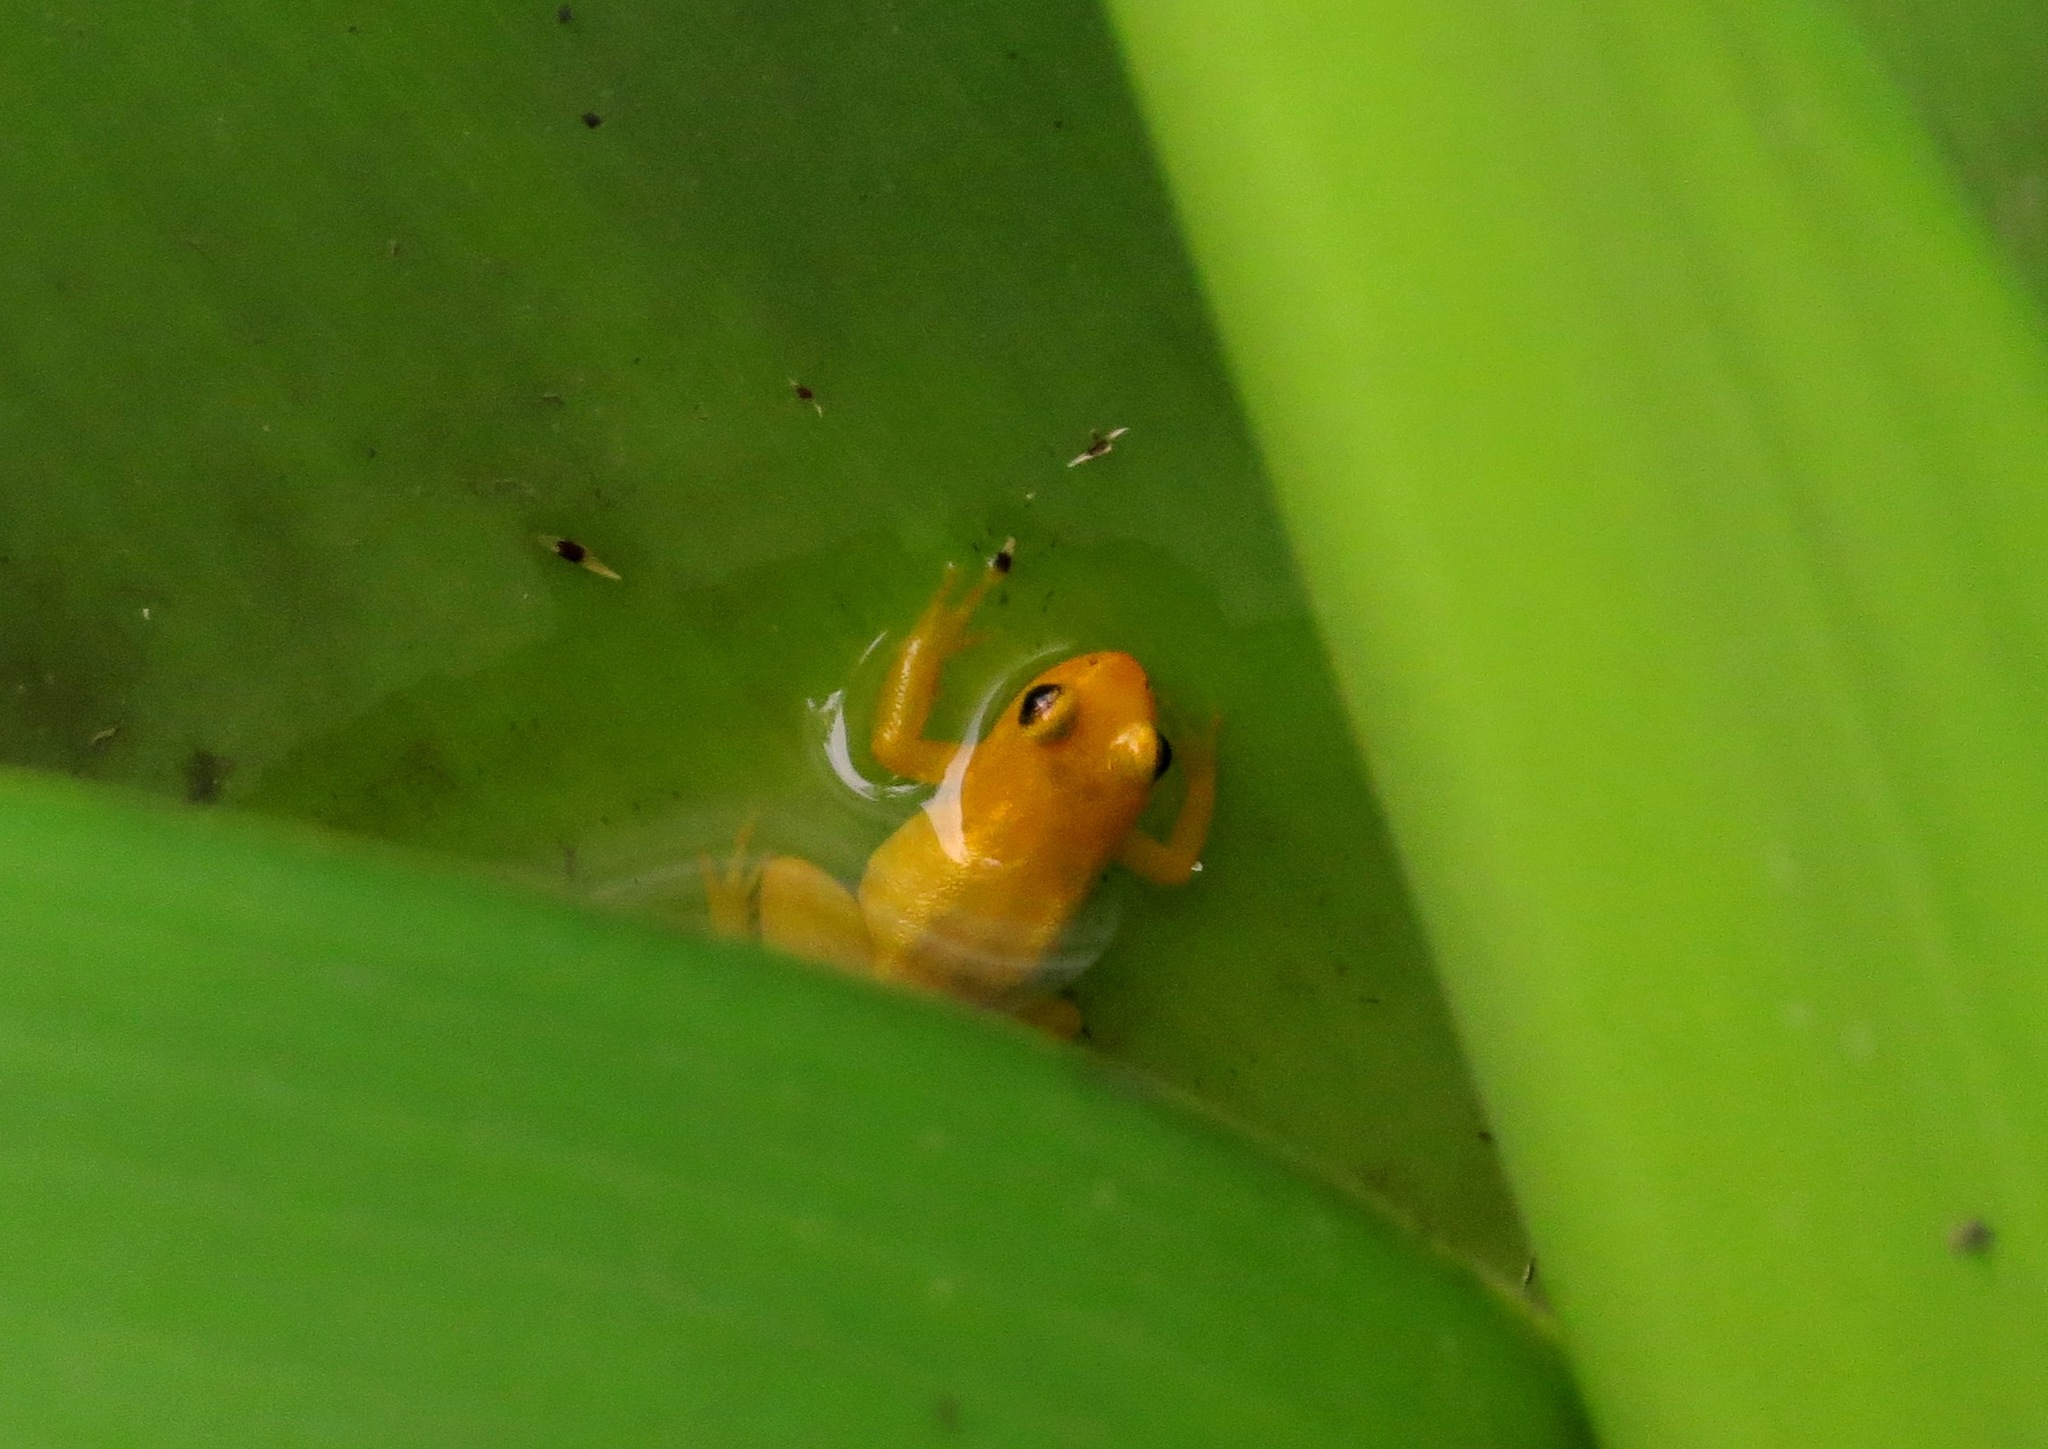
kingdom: Animalia
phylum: Chordata
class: Amphibia
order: Anura
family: Aromobatidae
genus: Anomaloglossus
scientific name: Anomaloglossus beebei
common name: Beebe's rocket frog
